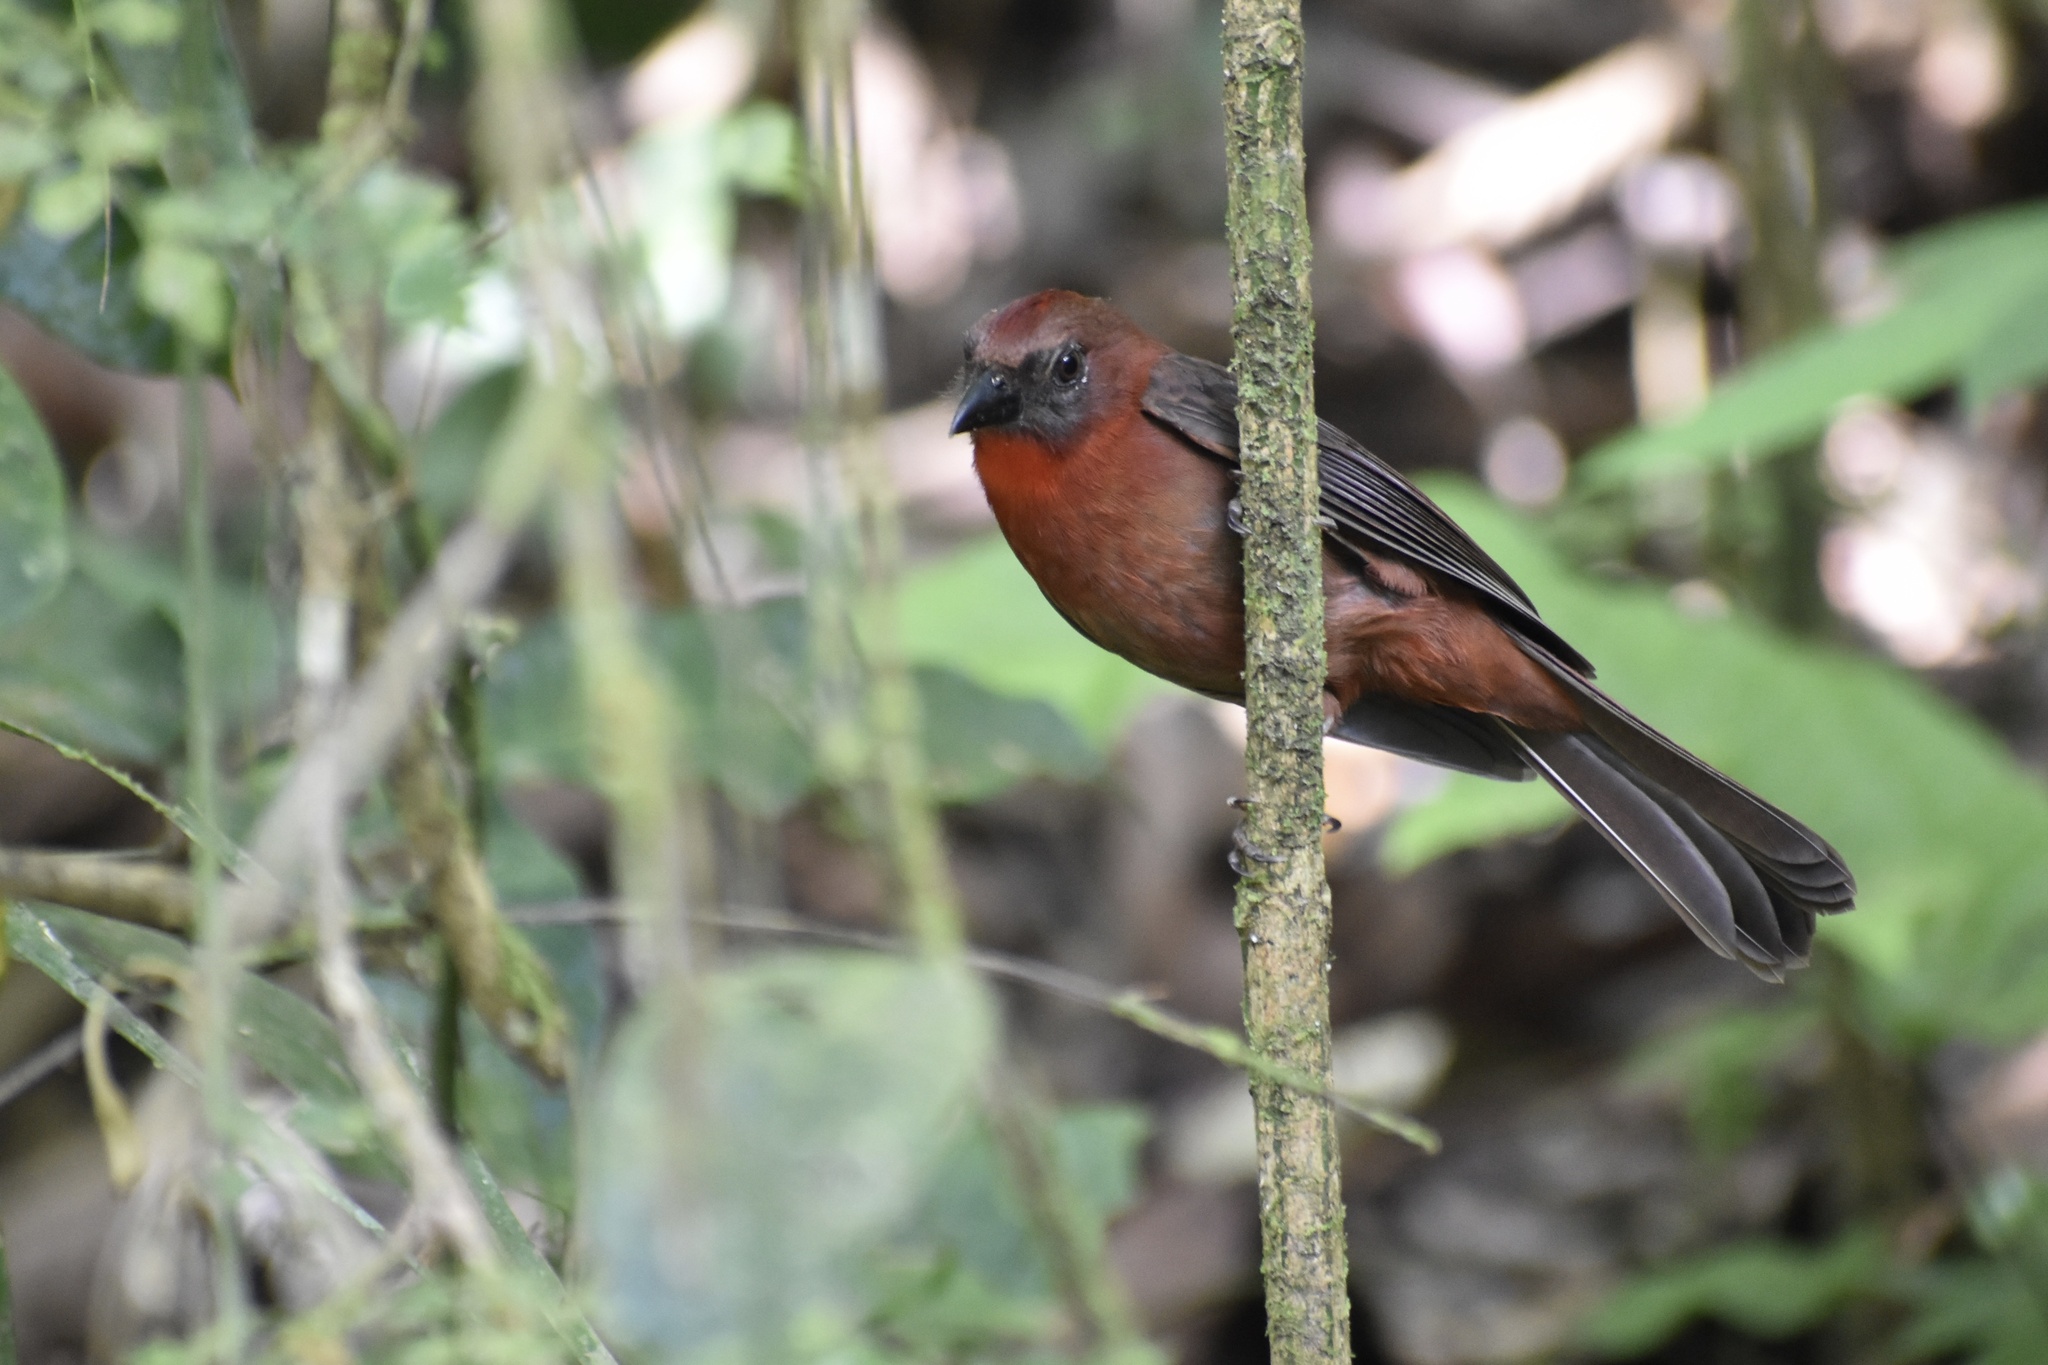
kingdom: Animalia
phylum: Chordata
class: Aves
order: Passeriformes
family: Cardinalidae
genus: Habia
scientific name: Habia fuscicauda
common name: Red-throated ant-tanager
